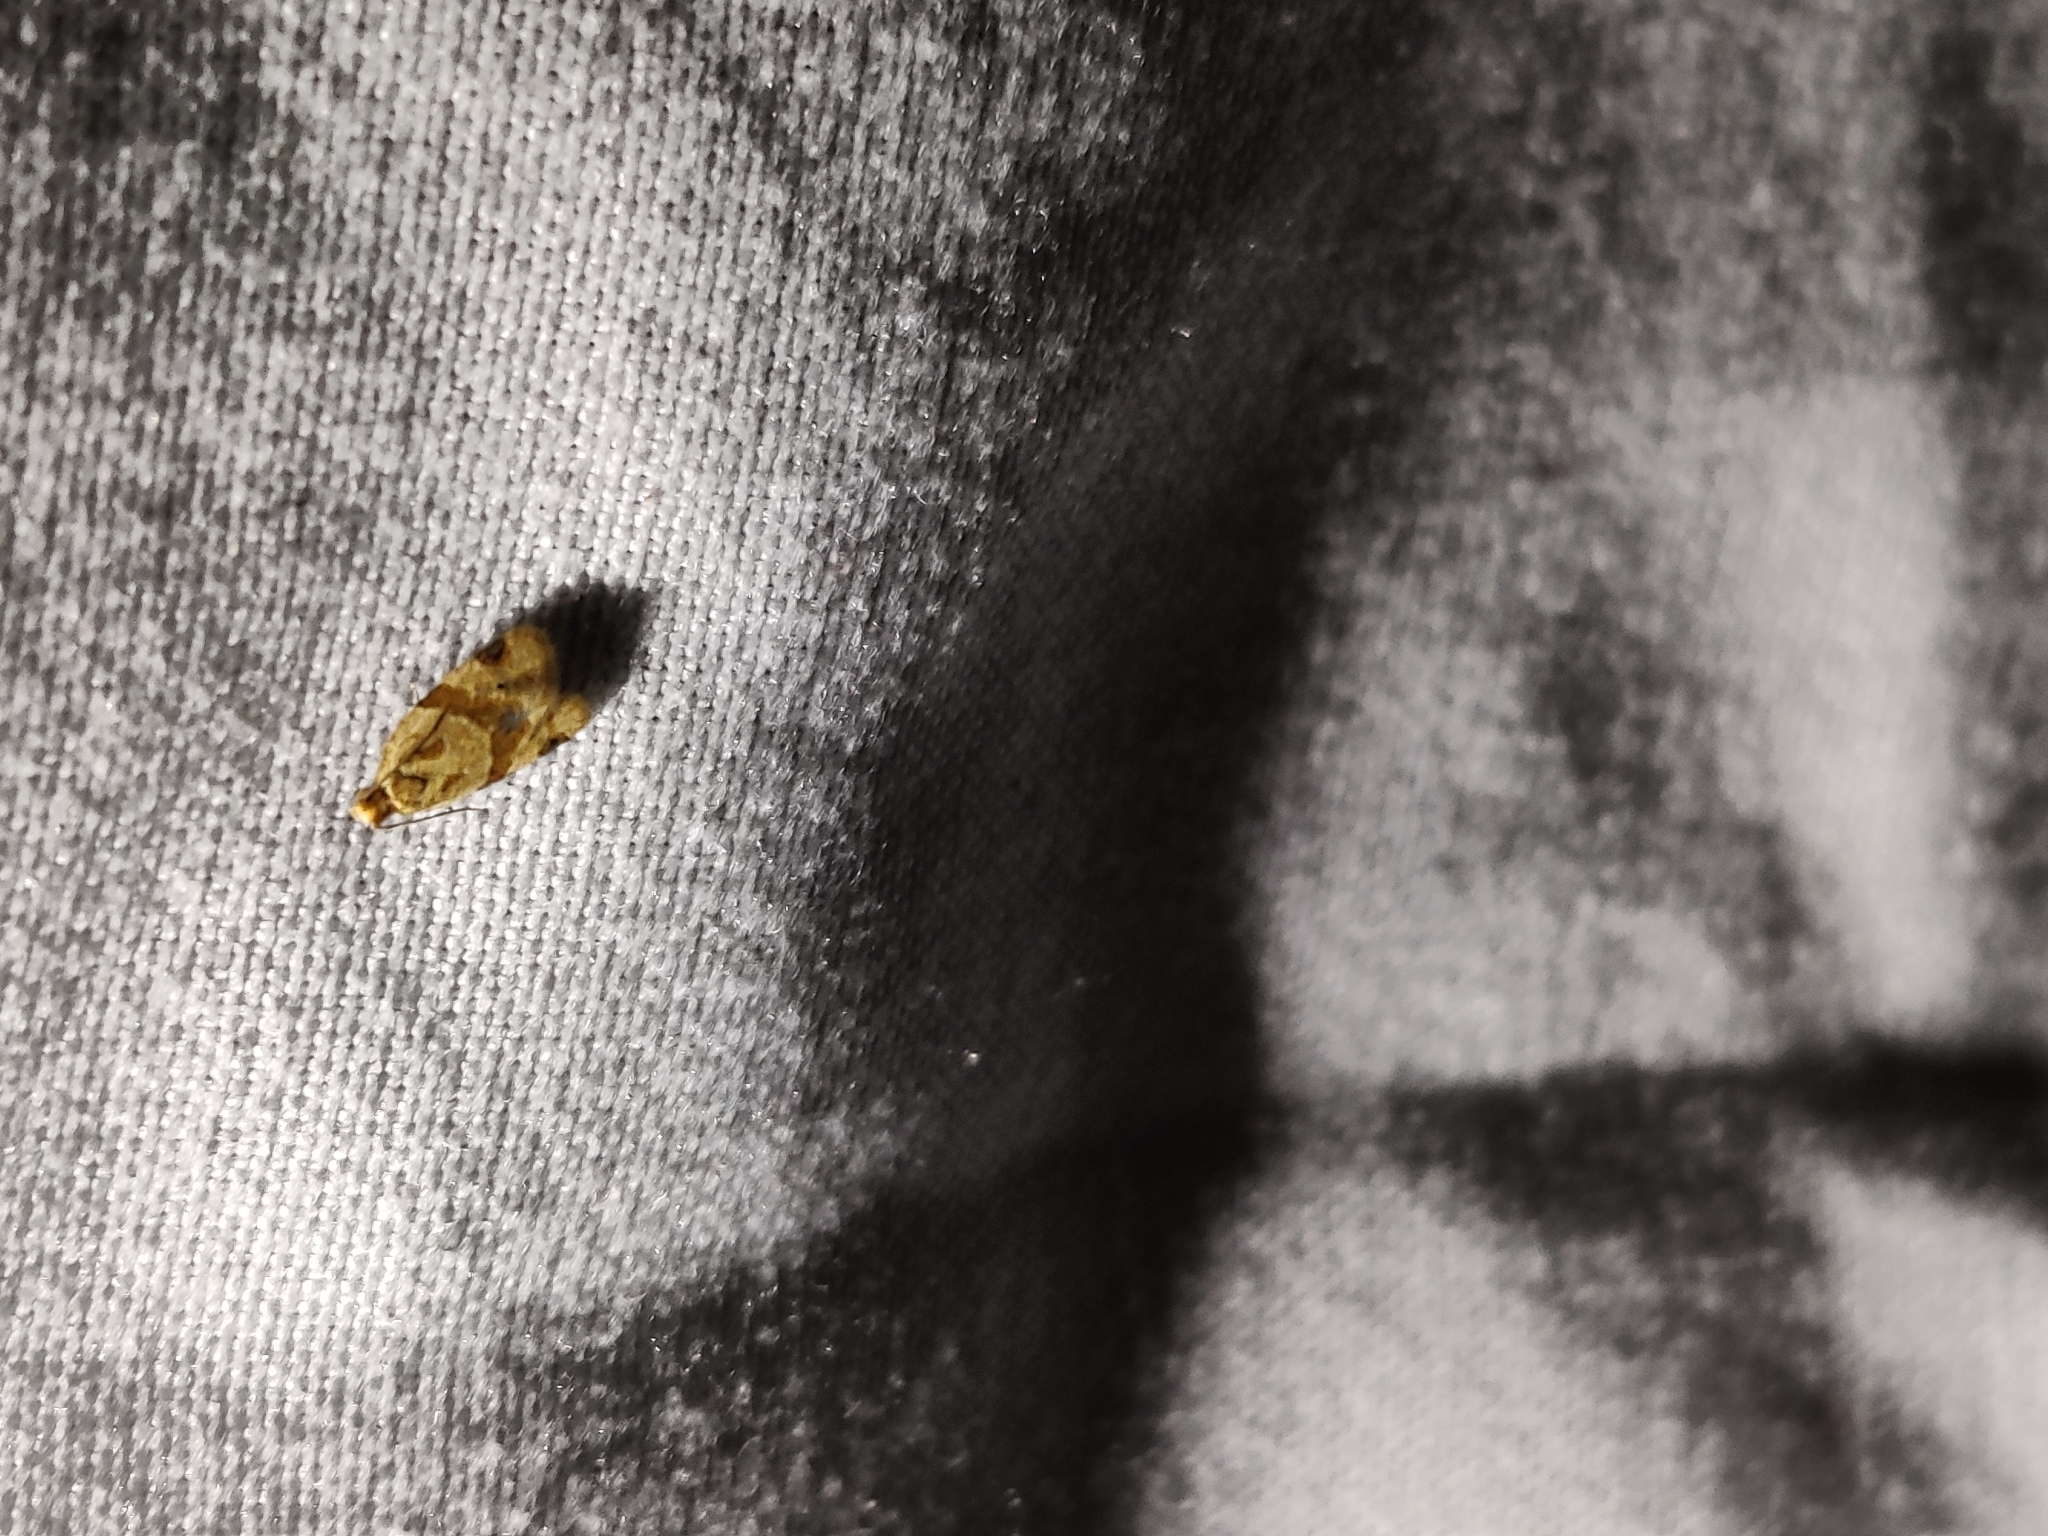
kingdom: Animalia
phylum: Arthropoda
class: Insecta
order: Lepidoptera
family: Tortricidae
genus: Clepsis
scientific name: Clepsis peritana
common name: Garden tortrix
